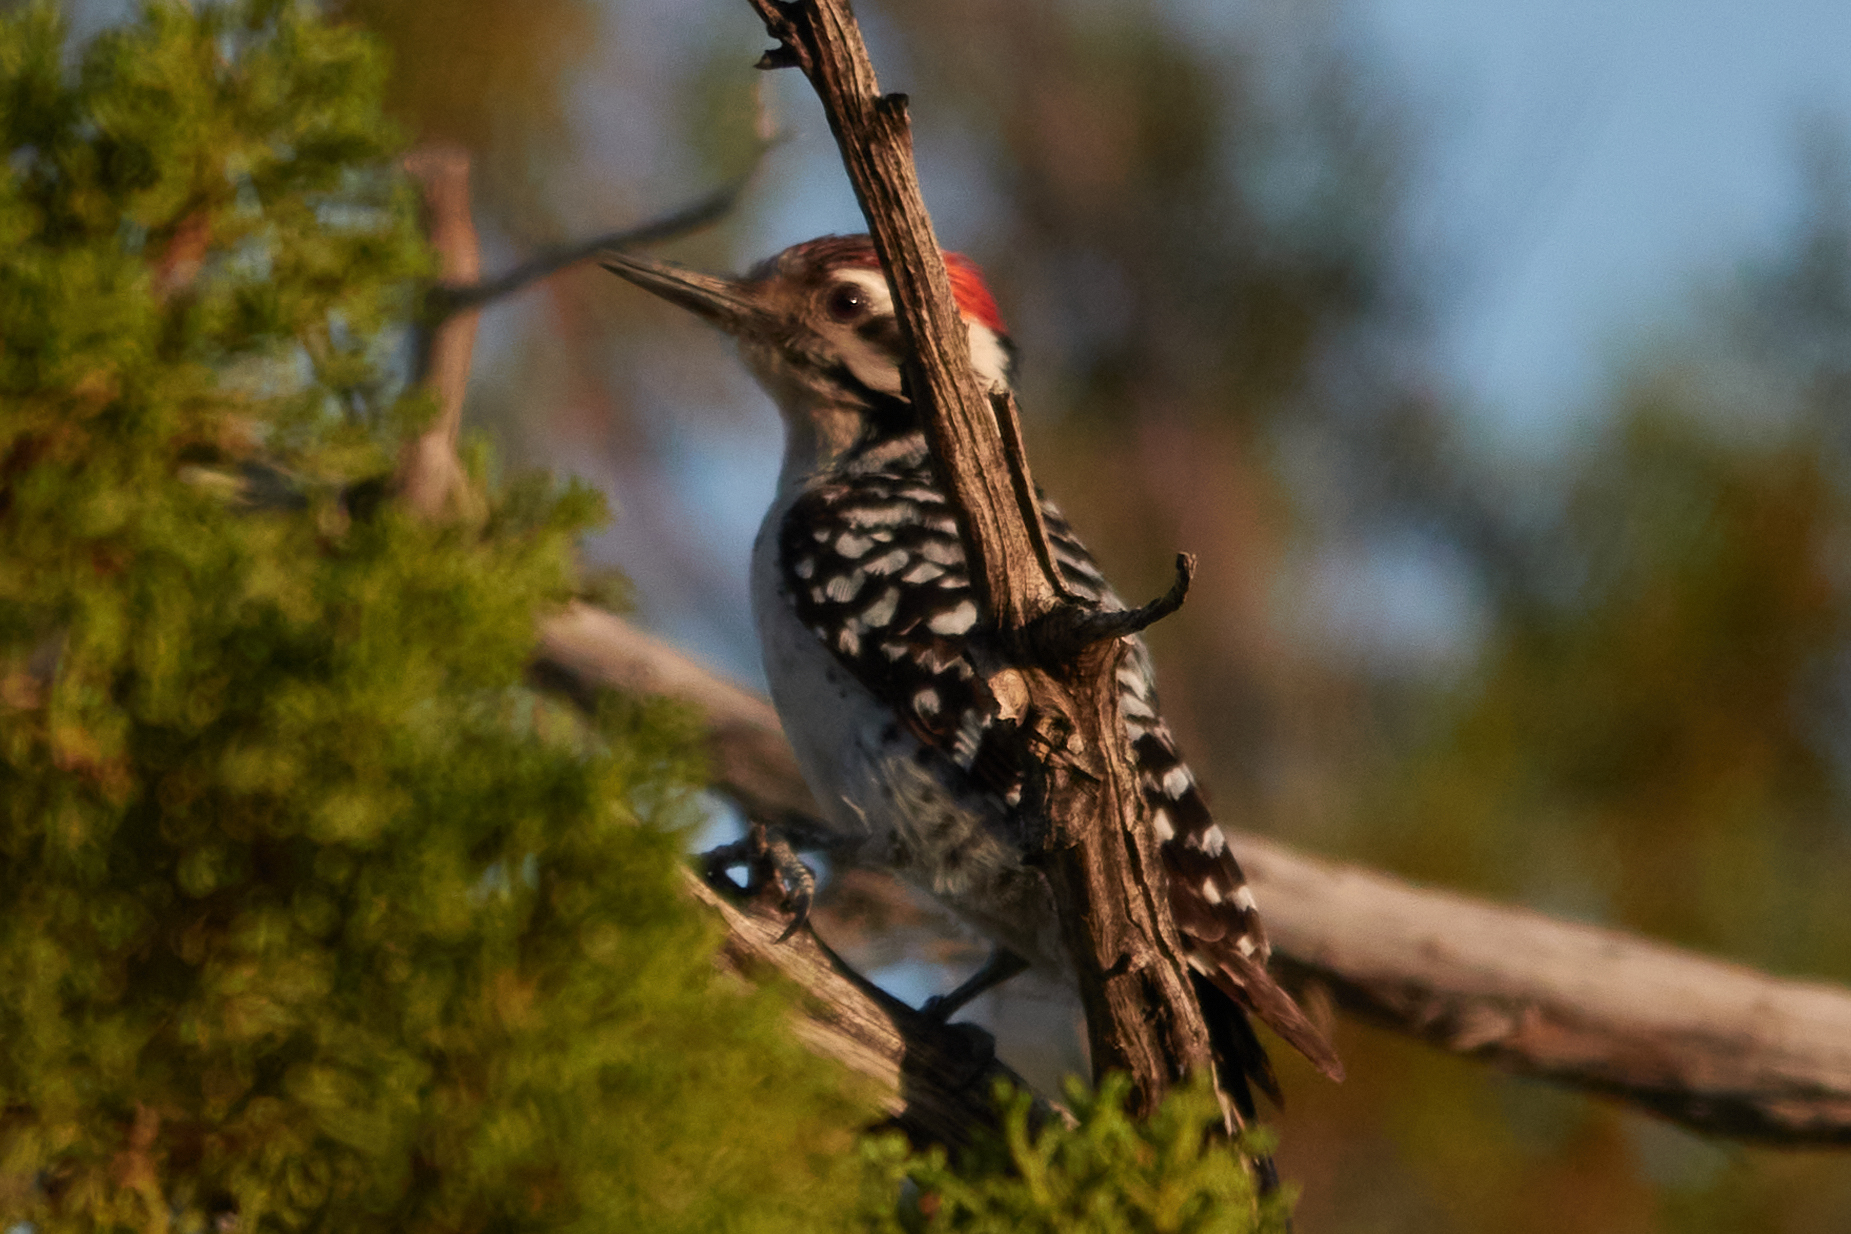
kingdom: Animalia
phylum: Chordata
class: Aves
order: Piciformes
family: Picidae
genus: Dryobates
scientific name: Dryobates scalaris
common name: Ladder-backed woodpecker
